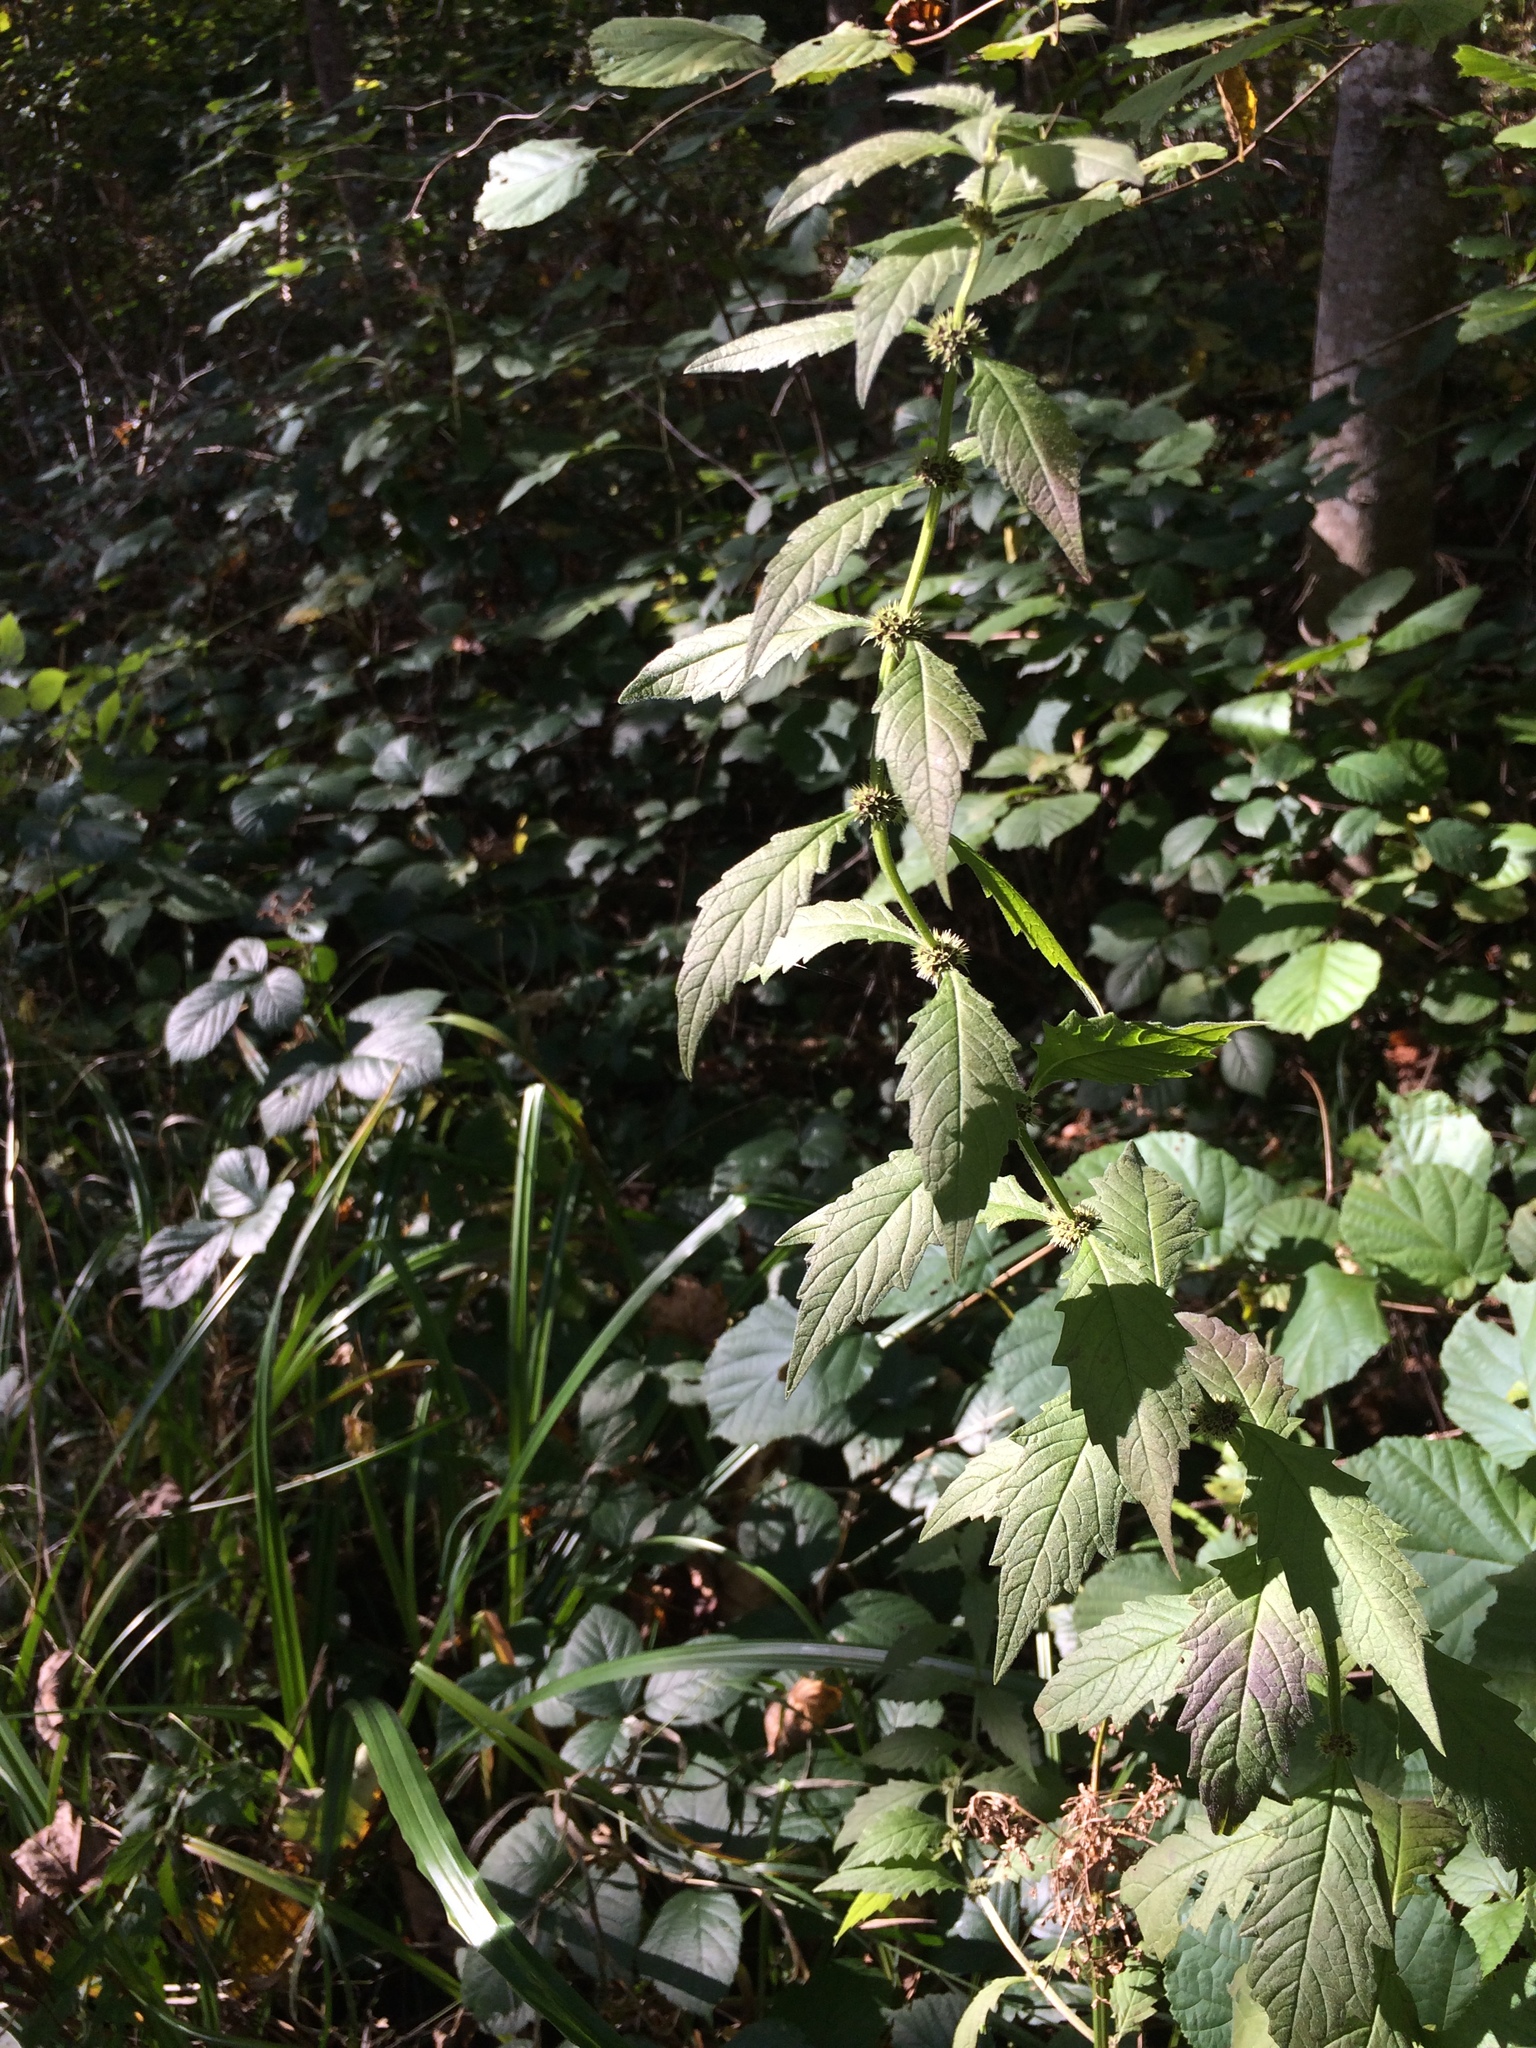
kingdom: Plantae
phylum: Tracheophyta
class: Magnoliopsida
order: Lamiales
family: Lamiaceae
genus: Lycopus
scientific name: Lycopus europaeus
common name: European bugleweed
